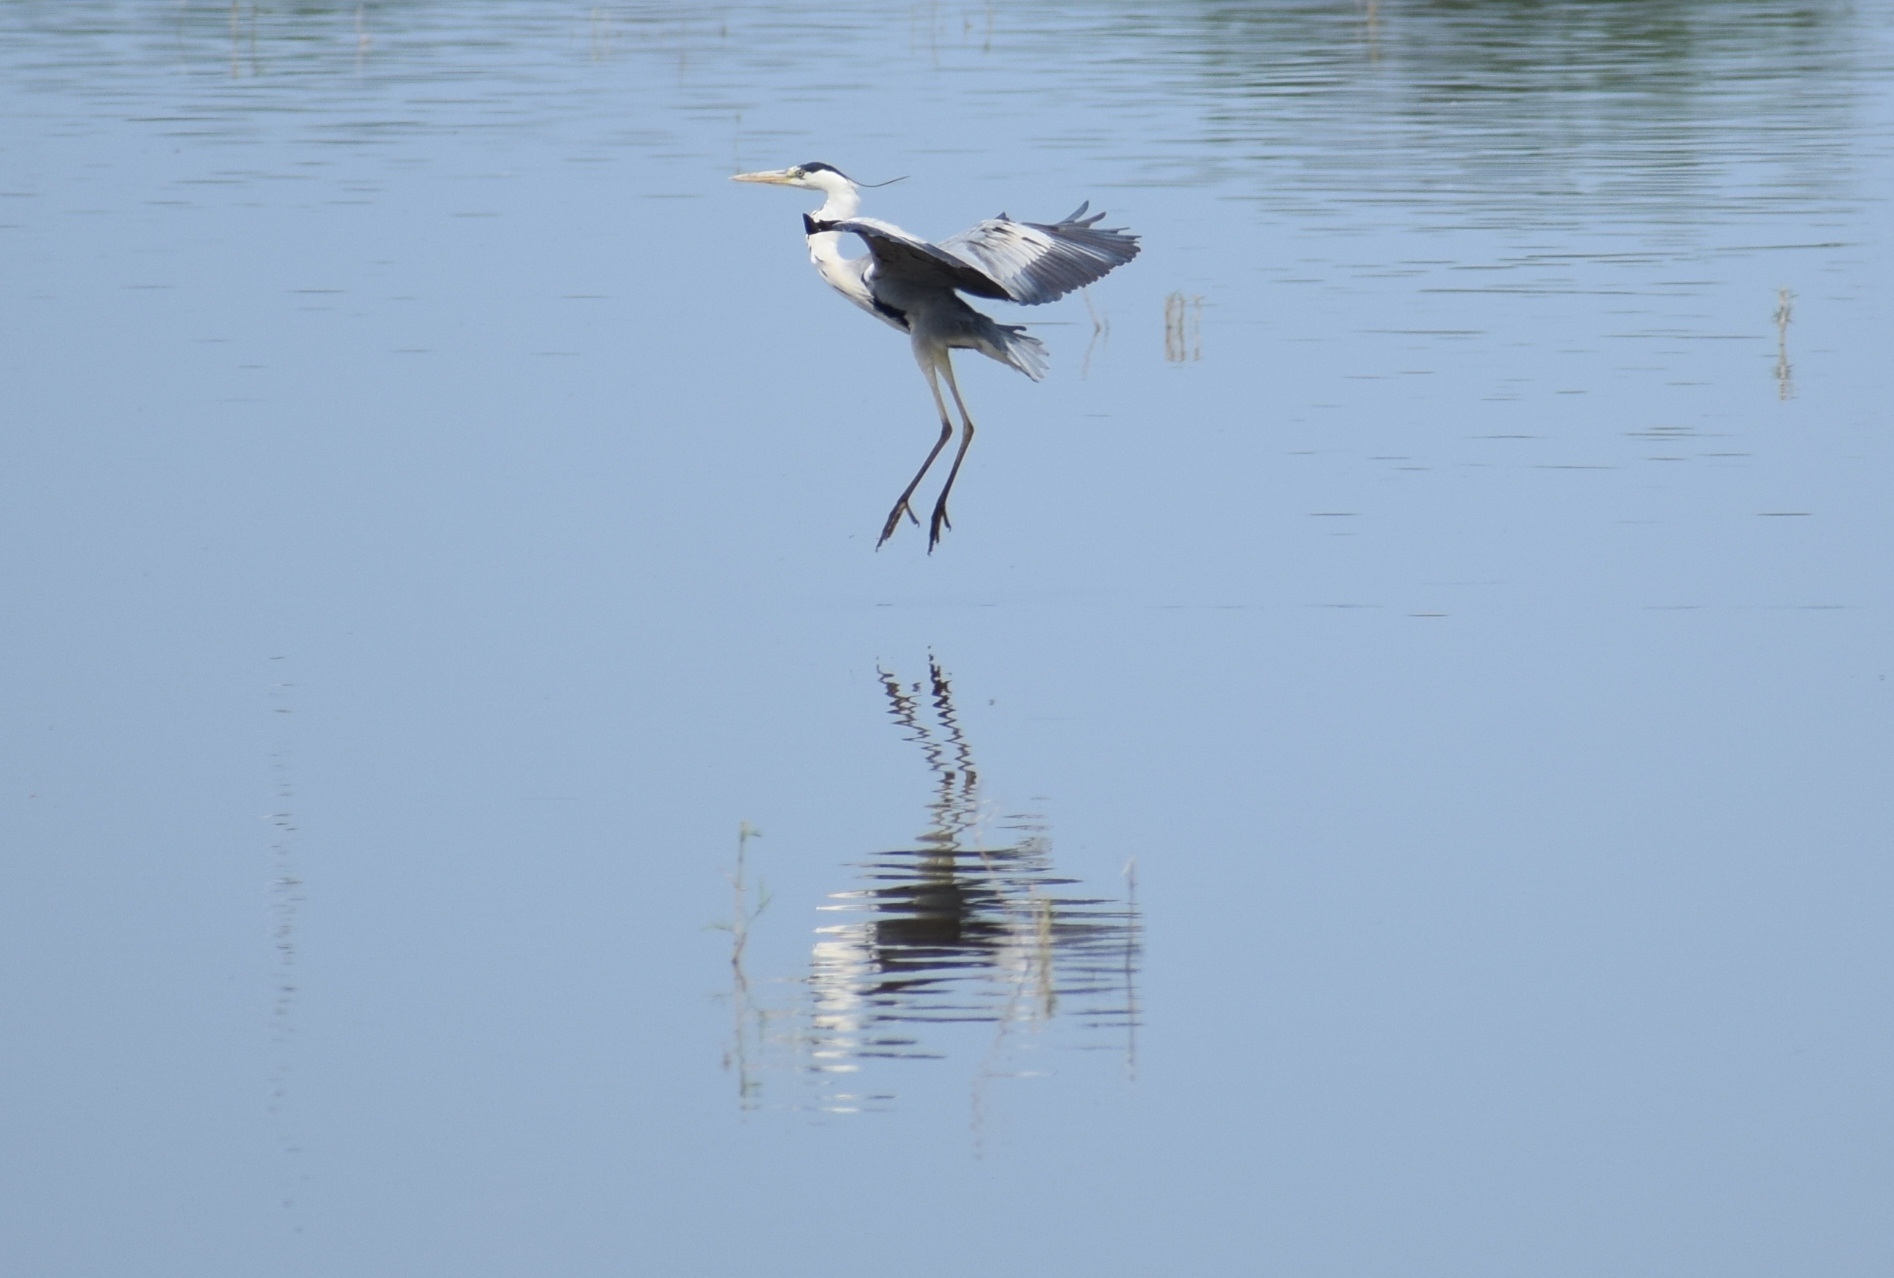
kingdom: Animalia
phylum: Chordata
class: Aves
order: Pelecaniformes
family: Ardeidae
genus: Ardea
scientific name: Ardea cinerea
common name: Grey heron
